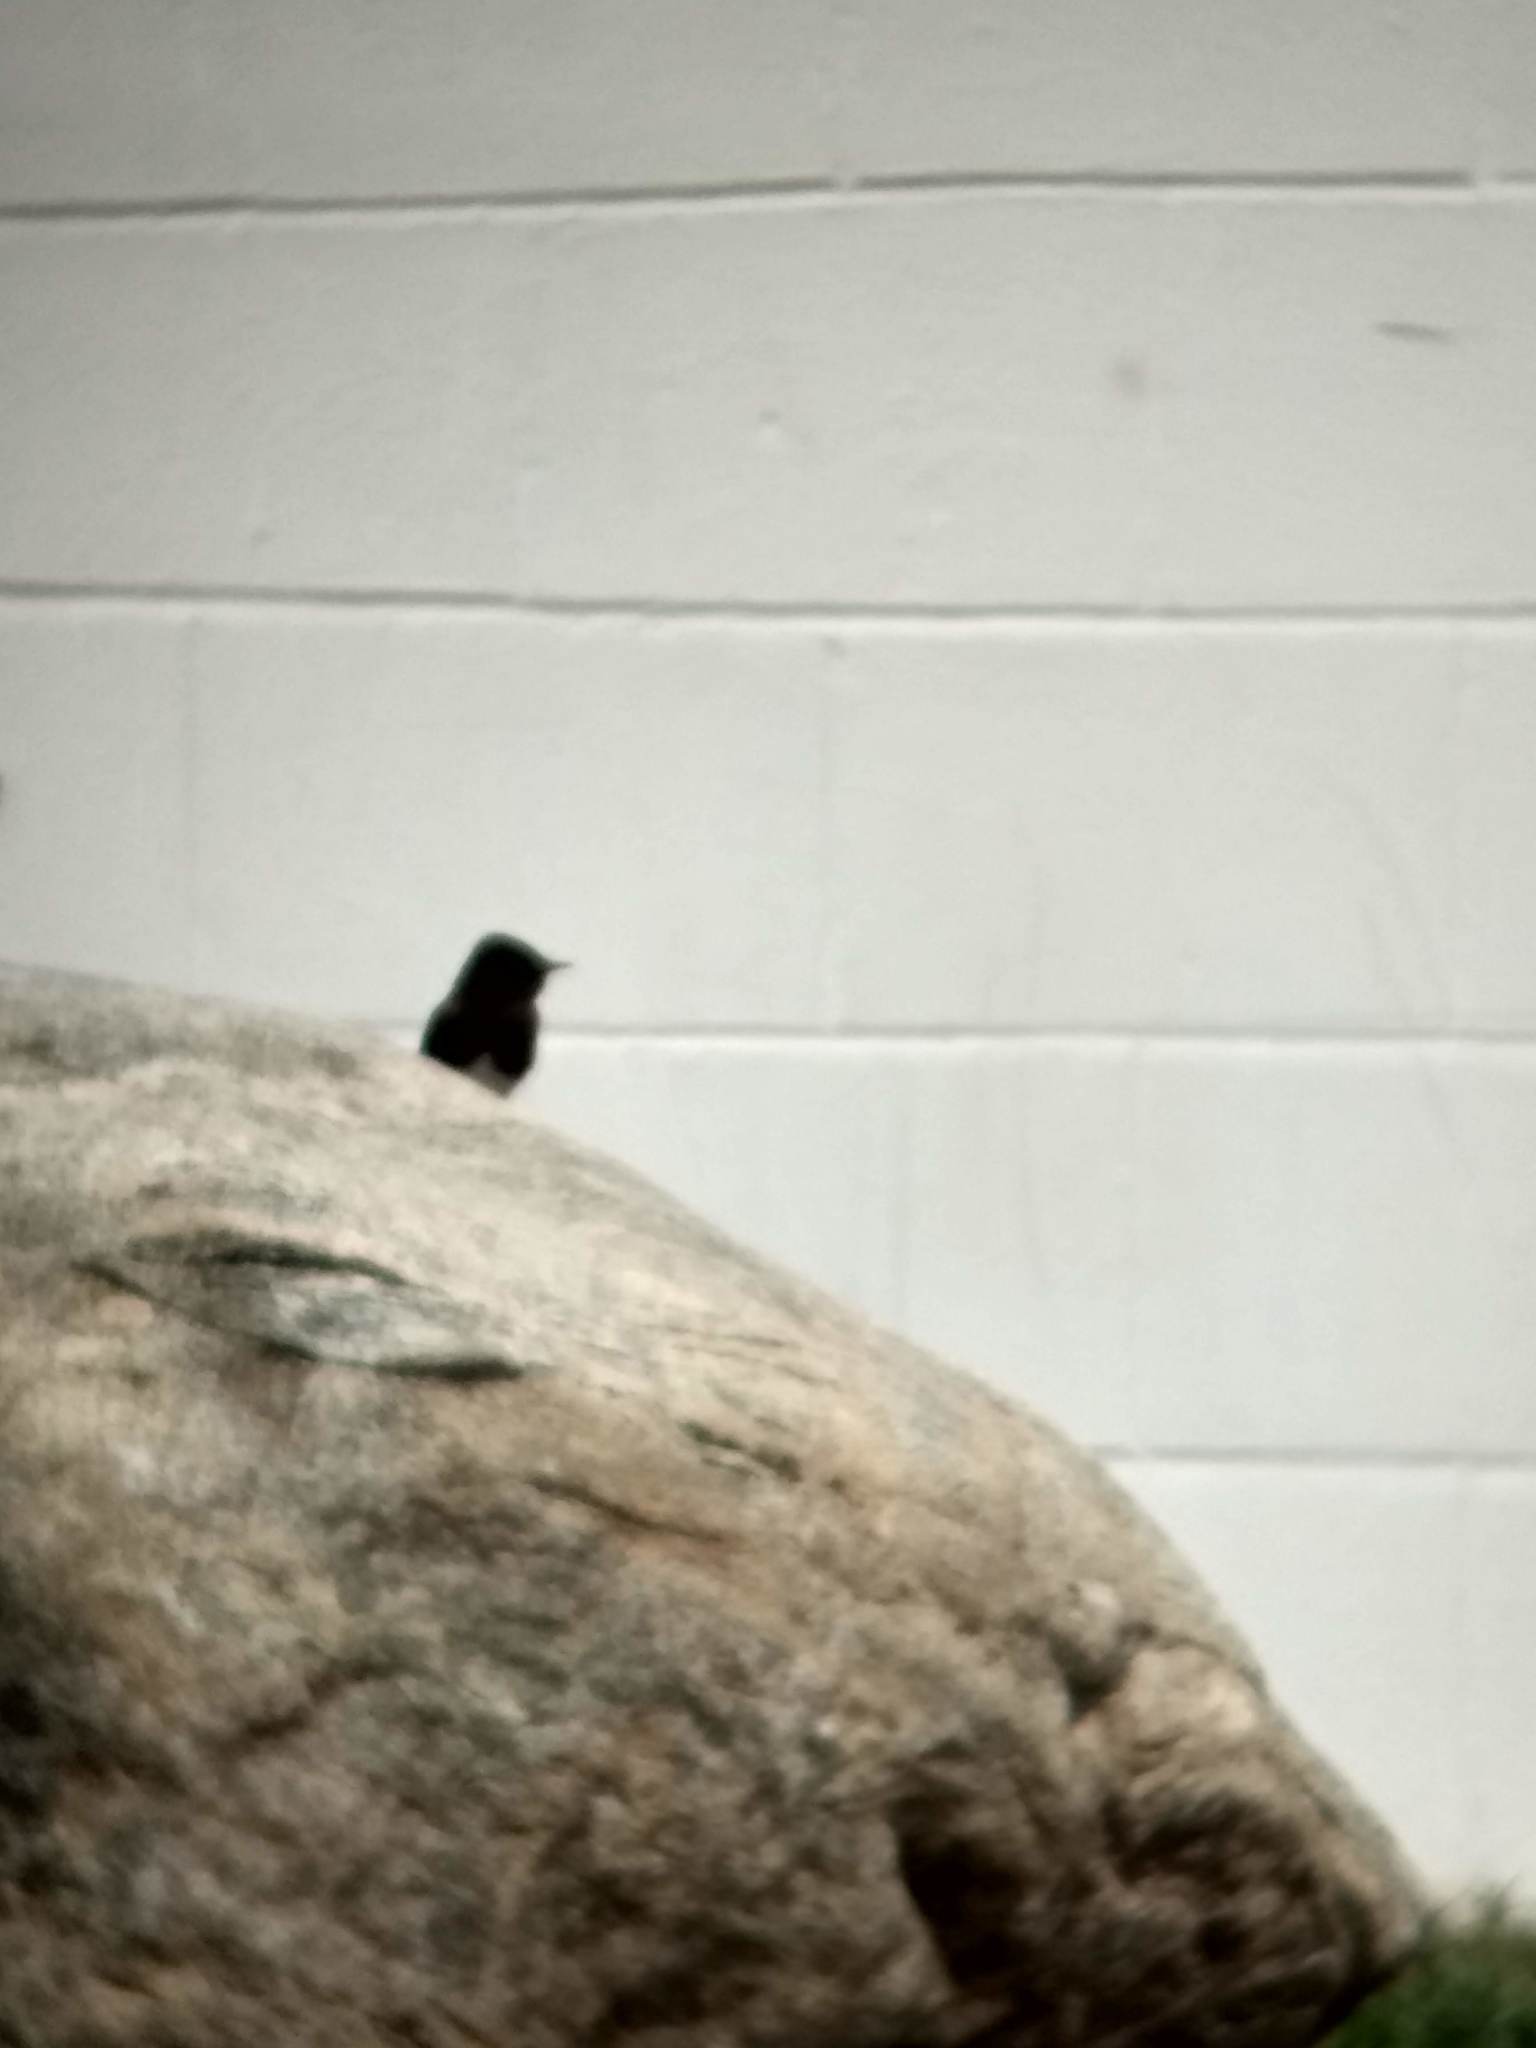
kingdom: Animalia
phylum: Chordata
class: Aves
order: Passeriformes
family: Tyrannidae
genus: Sayornis
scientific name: Sayornis nigricans
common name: Black phoebe
